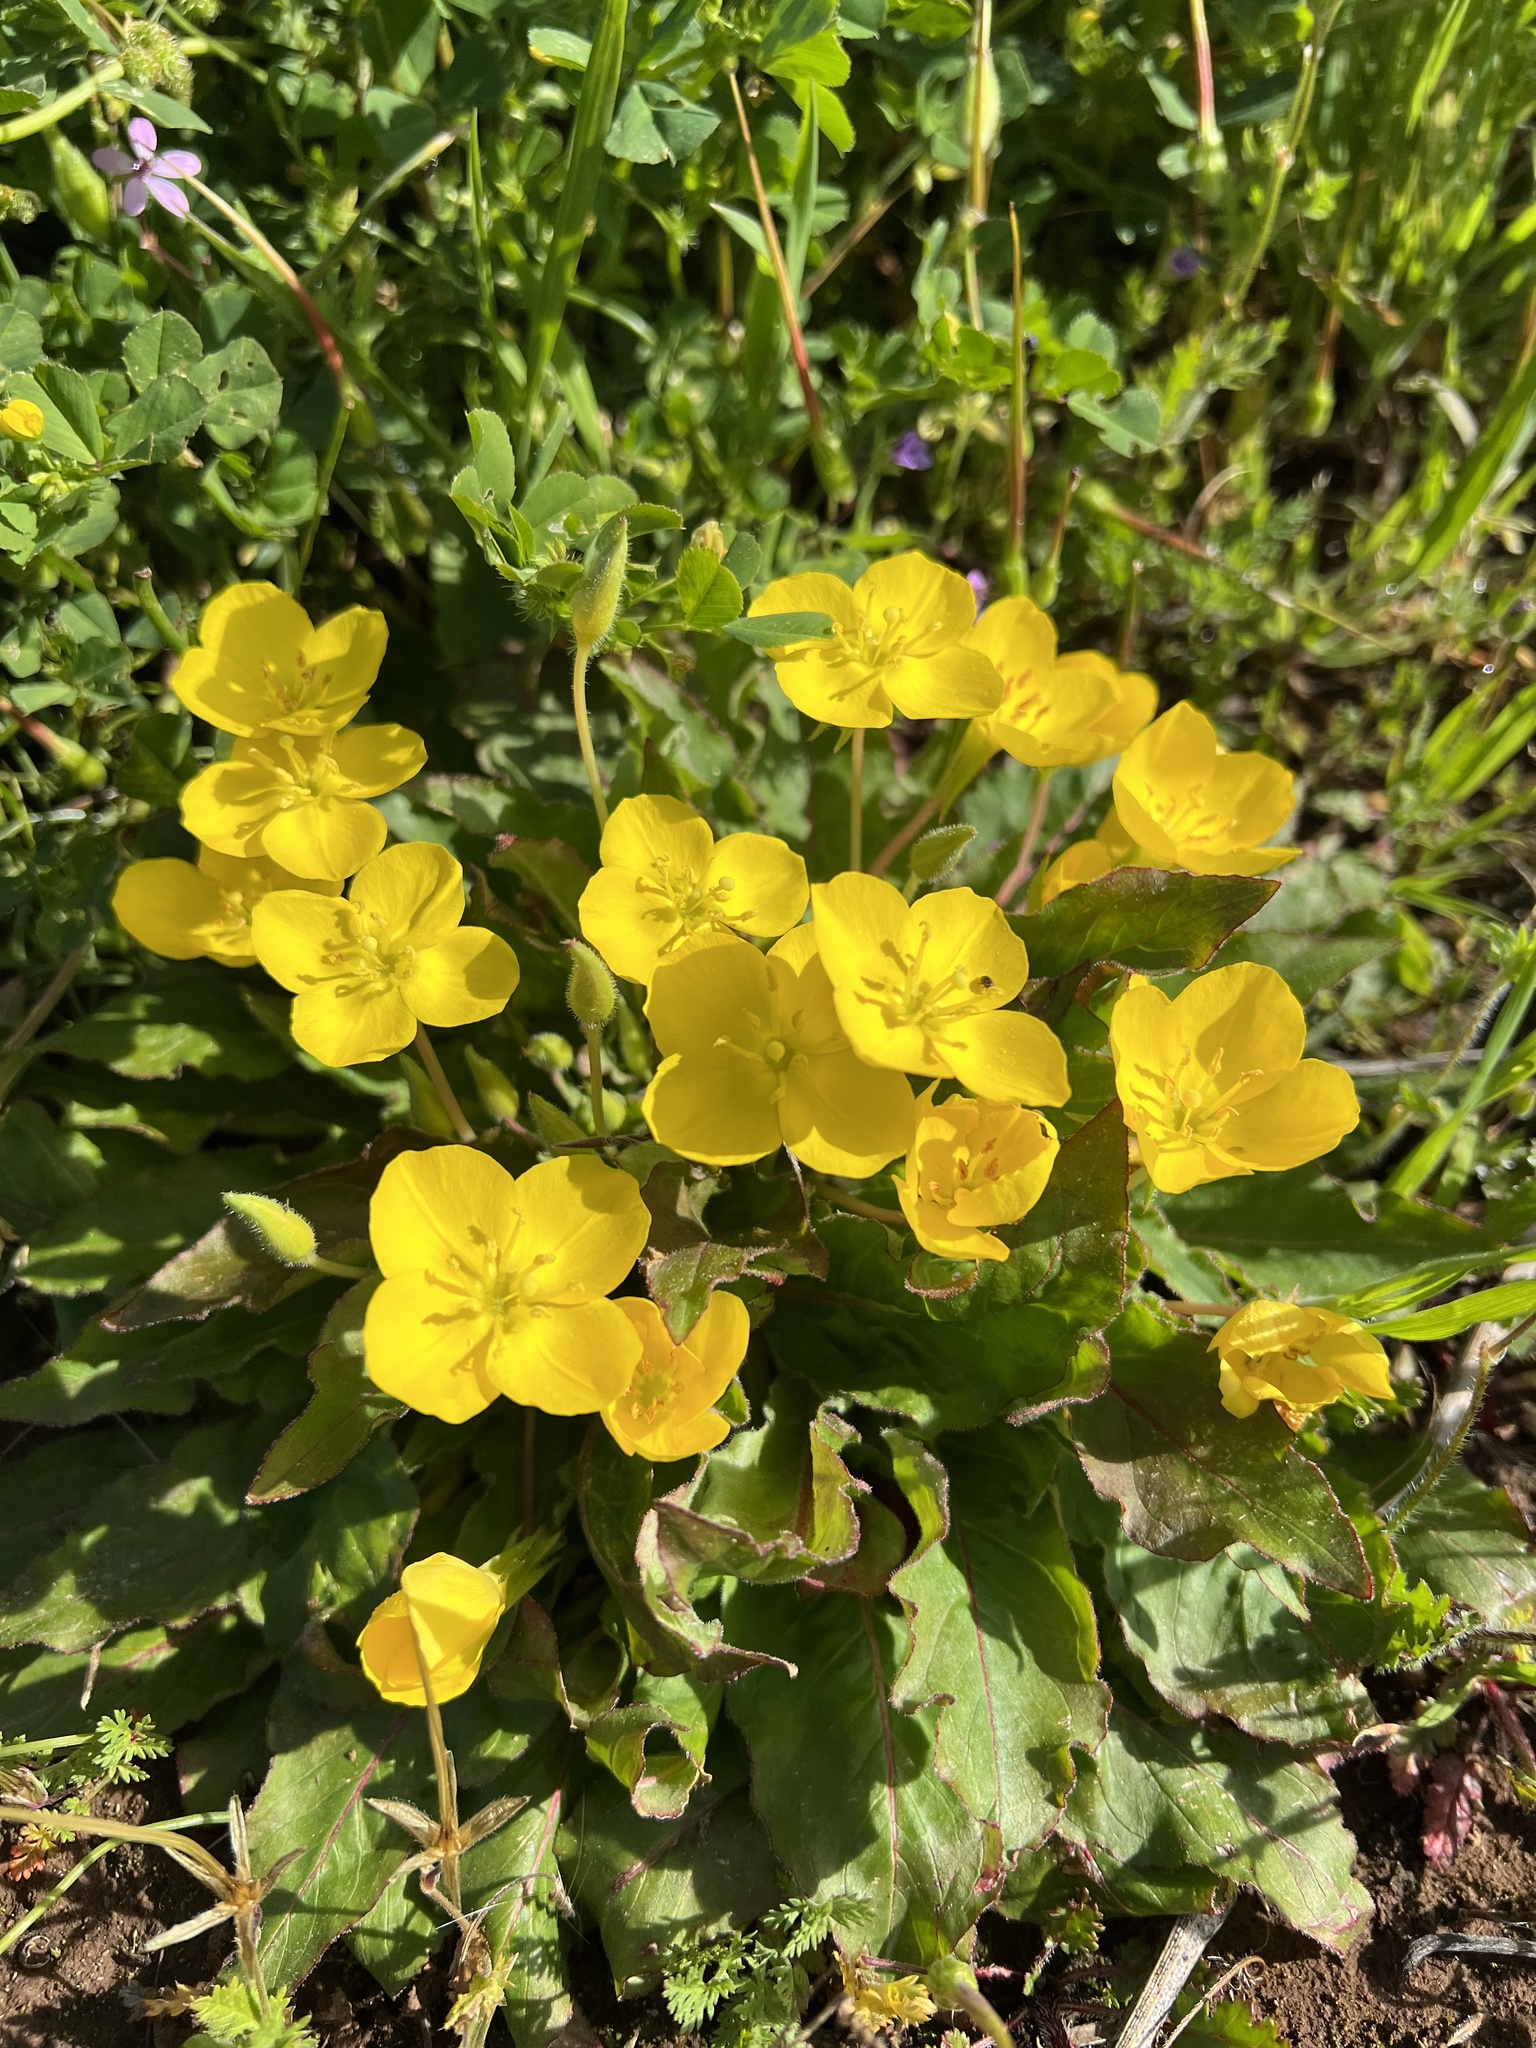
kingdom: Plantae
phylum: Tracheophyta
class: Magnoliopsida
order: Myrtales
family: Onagraceae
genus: Taraxia
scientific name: Taraxia ovata
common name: Goldeneggs
